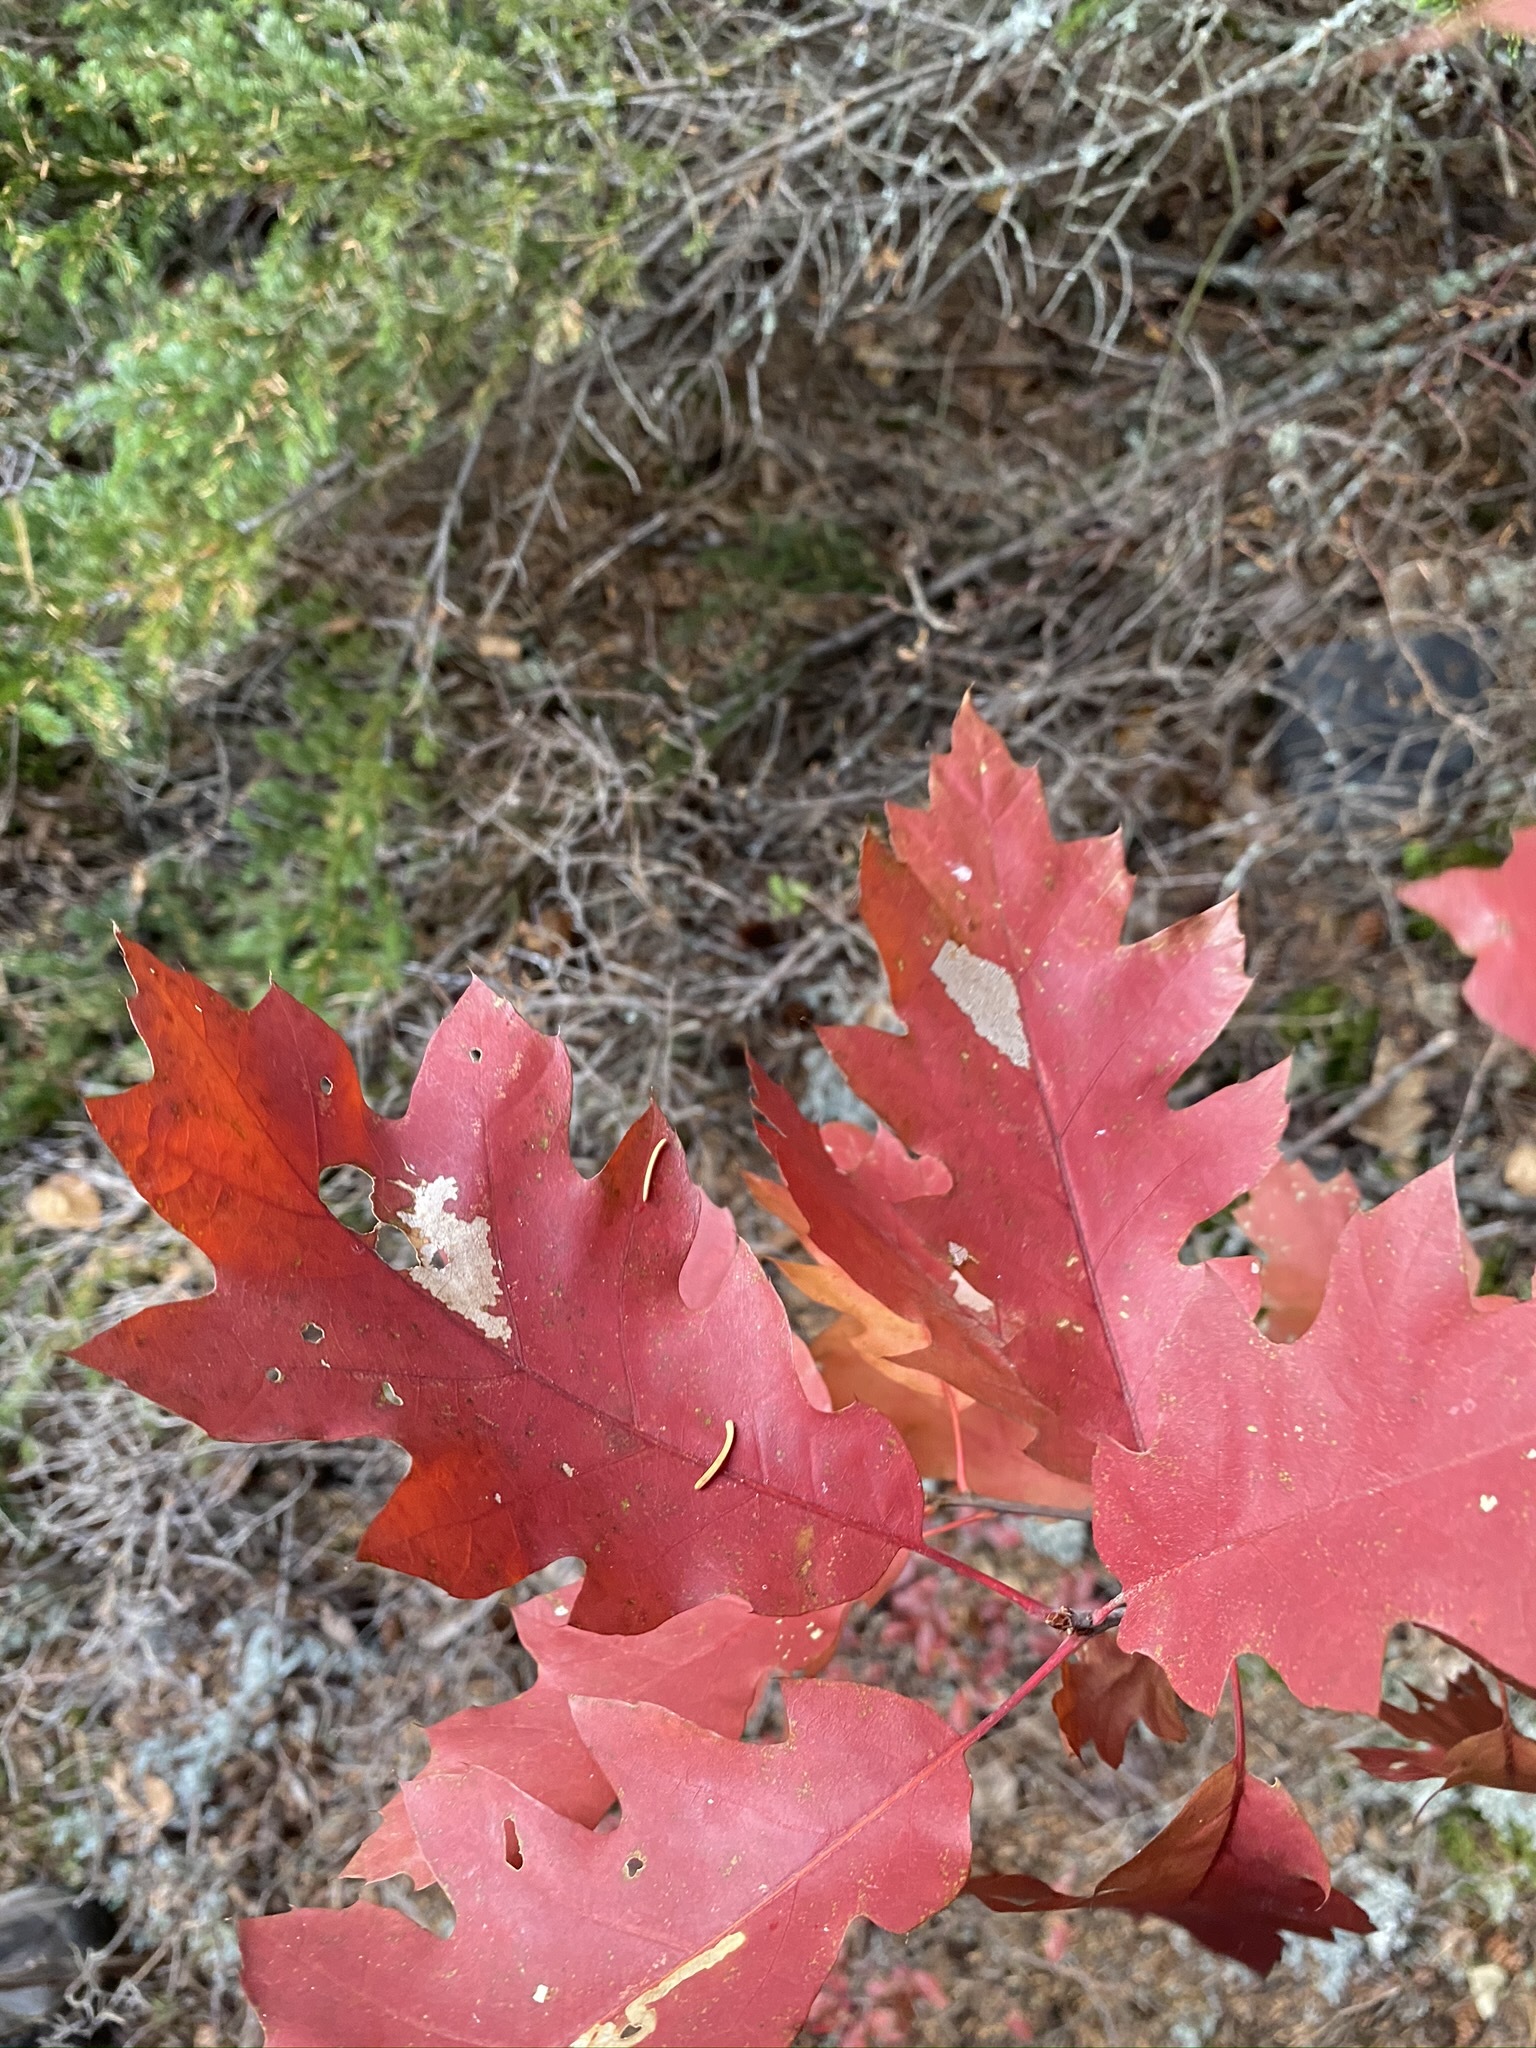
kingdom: Plantae
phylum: Tracheophyta
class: Magnoliopsida
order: Fagales
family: Fagaceae
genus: Quercus
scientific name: Quercus rubra
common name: Red oak
